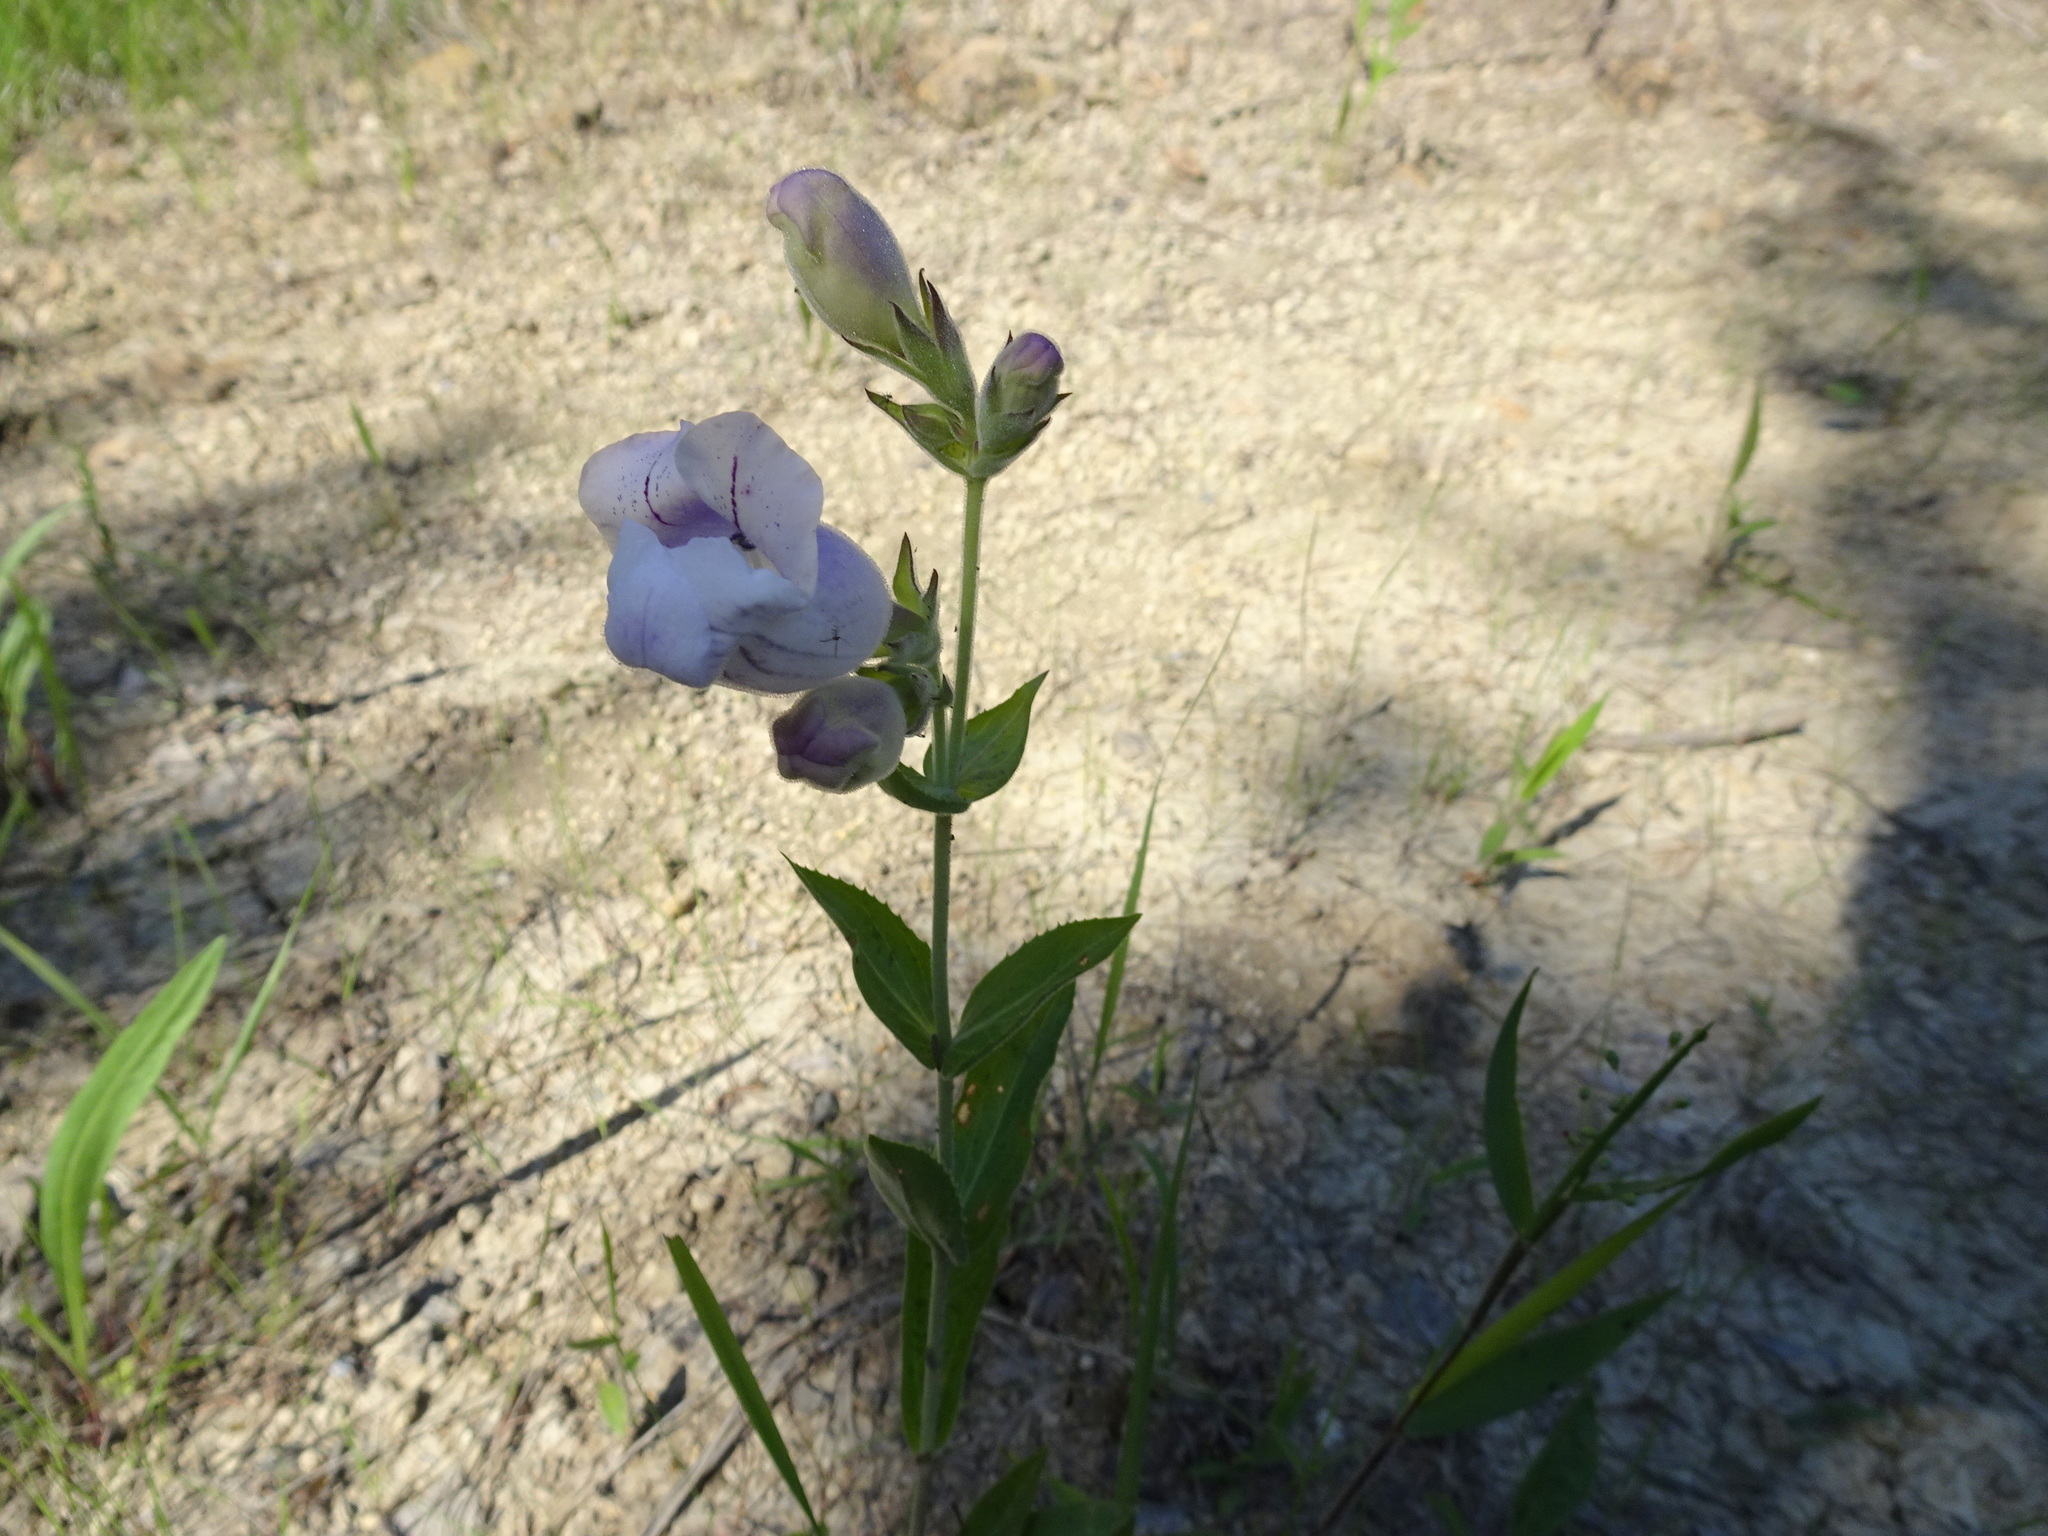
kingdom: Plantae
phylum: Tracheophyta
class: Magnoliopsida
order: Lamiales
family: Plantaginaceae
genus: Penstemon
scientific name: Penstemon cobaea
